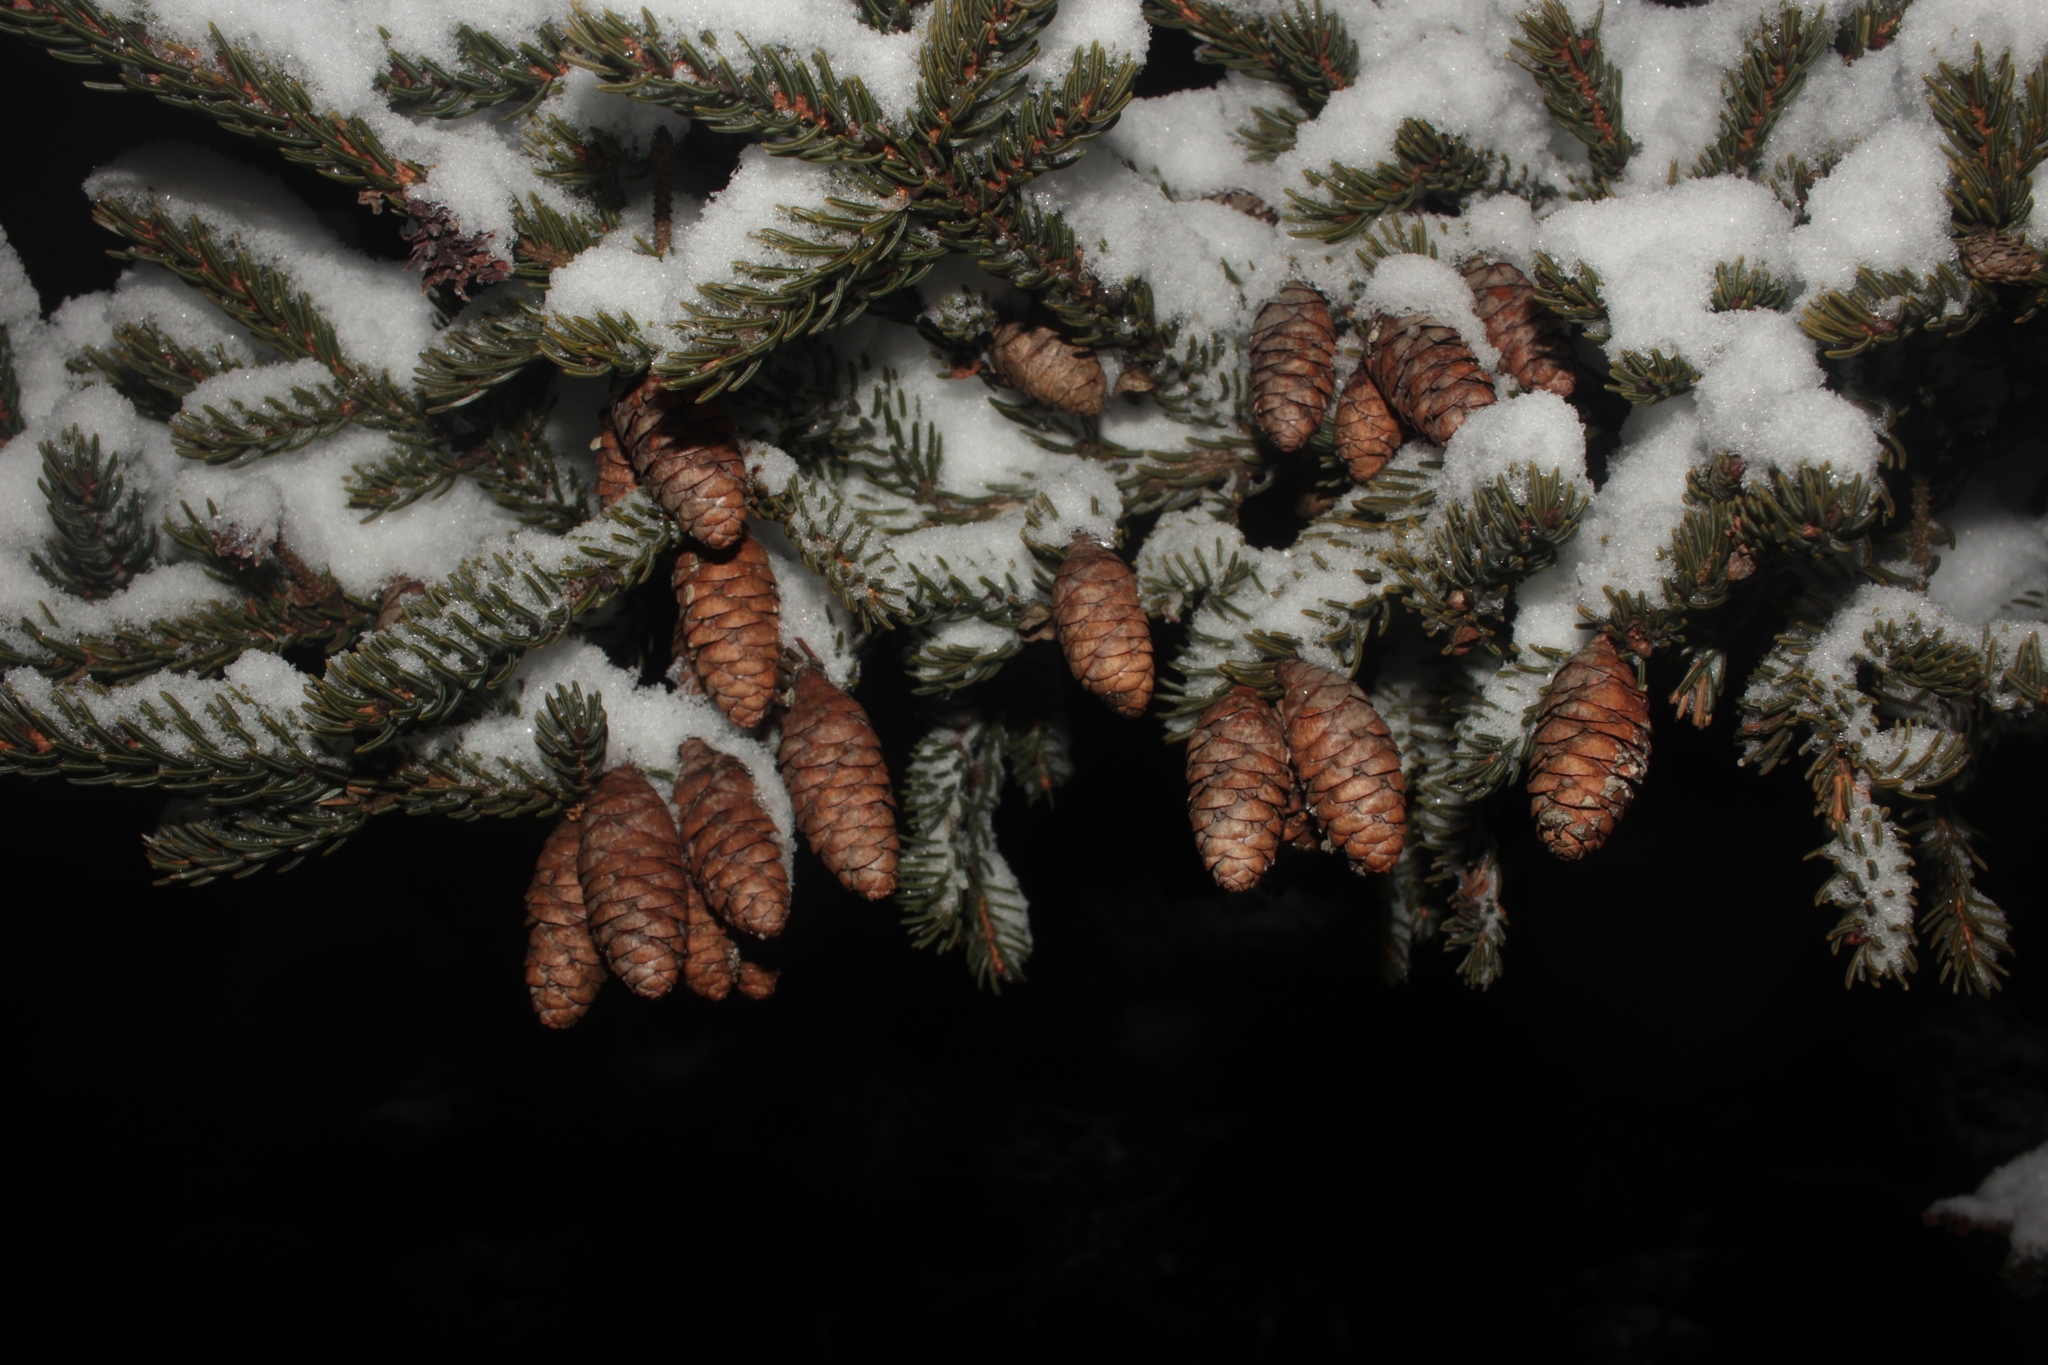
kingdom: Plantae
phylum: Tracheophyta
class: Pinopsida
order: Pinales
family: Pinaceae
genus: Picea
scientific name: Picea rubens
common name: Red spruce
